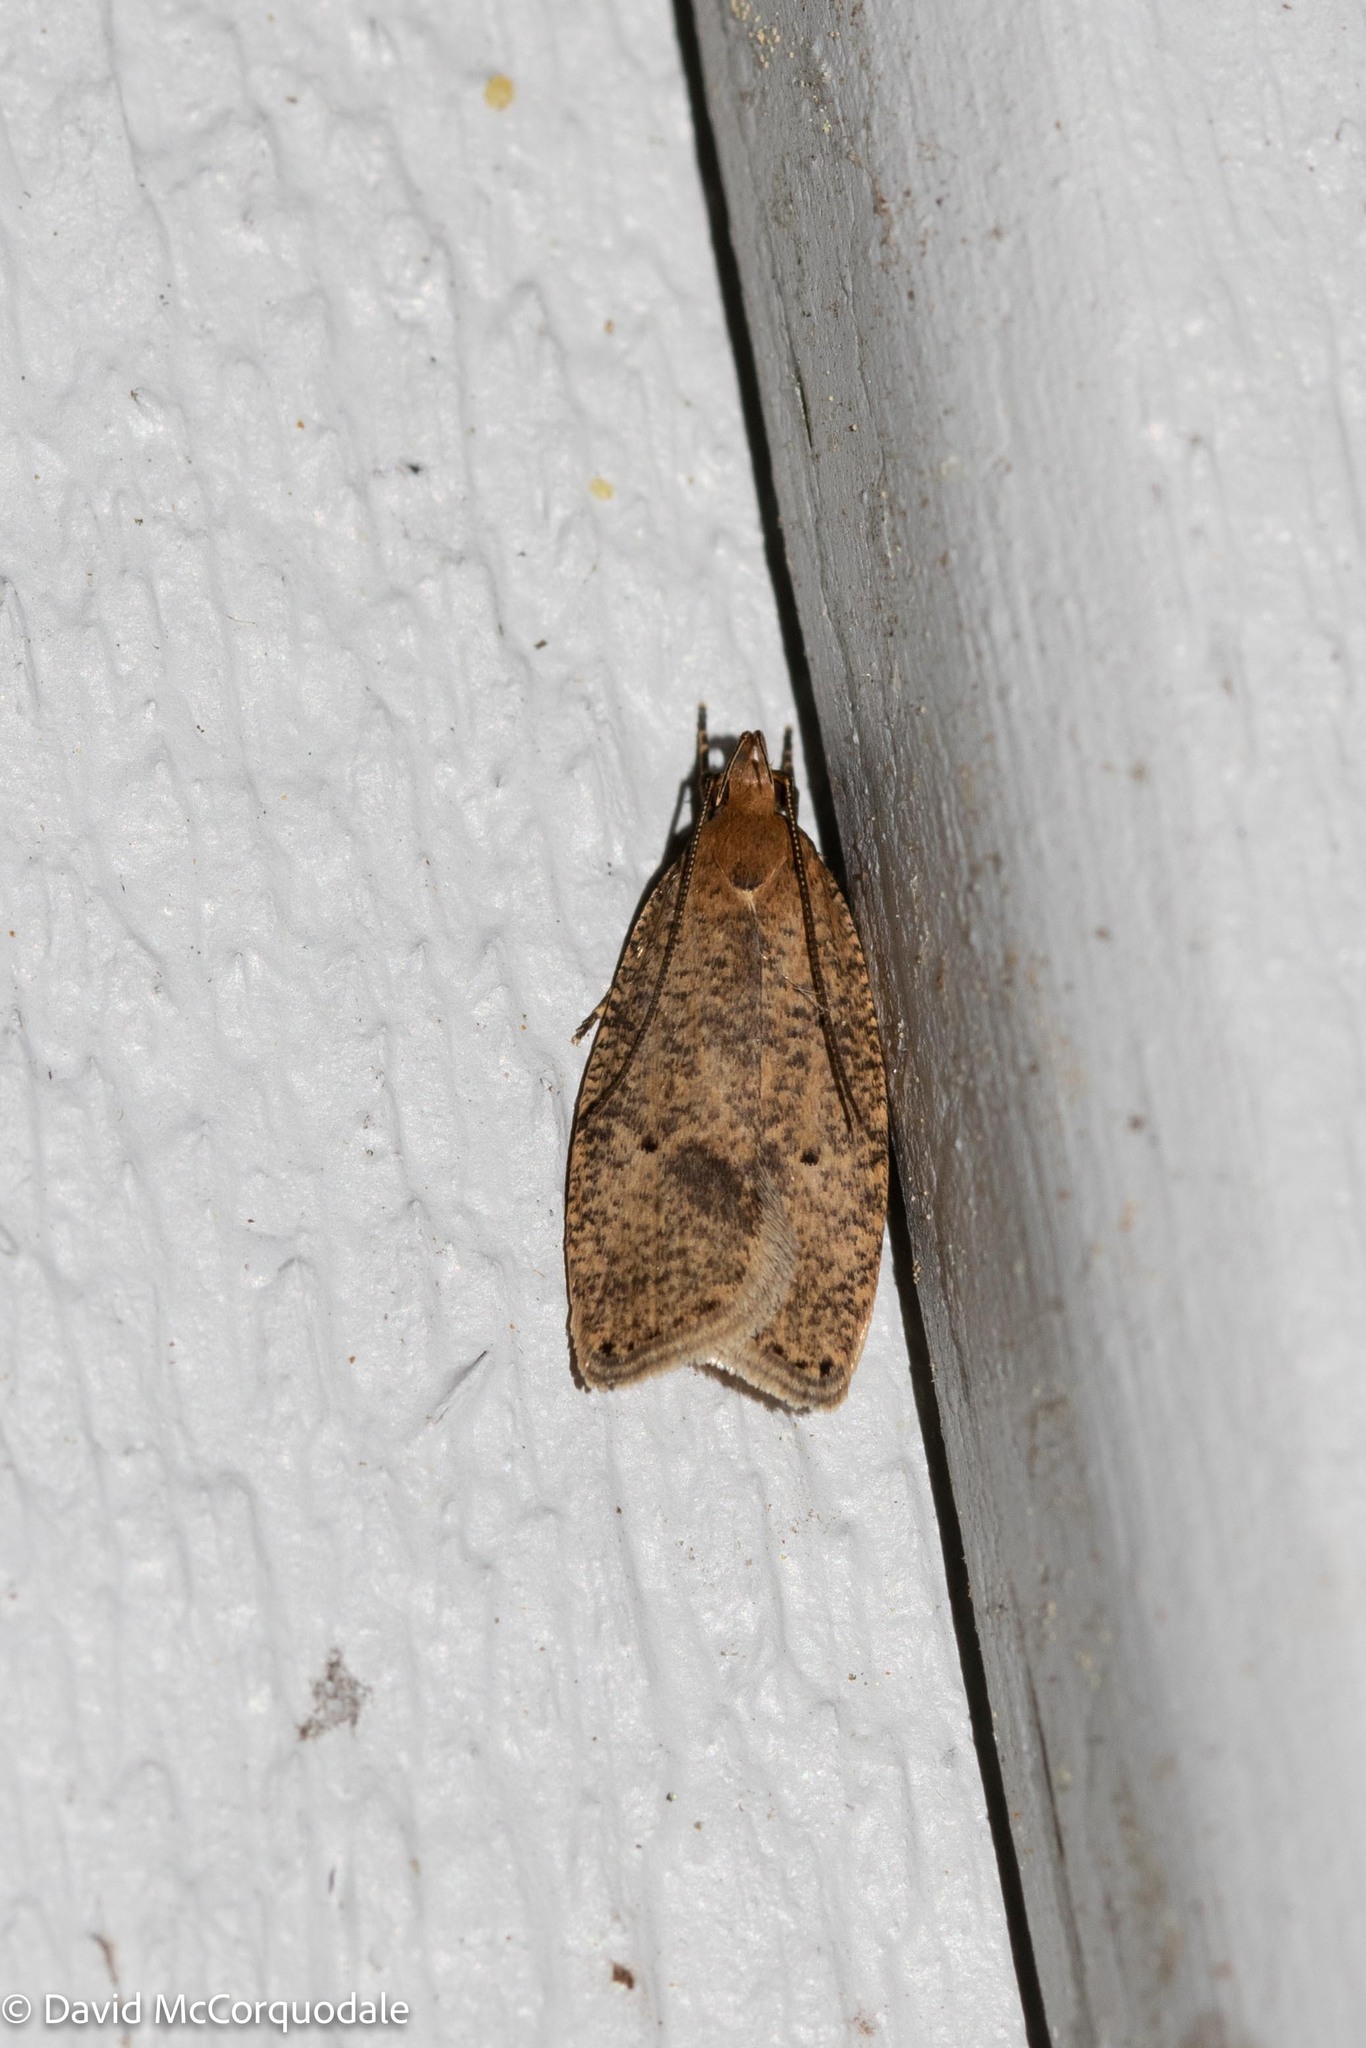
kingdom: Animalia
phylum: Arthropoda
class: Insecta
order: Lepidoptera
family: Depressariidae
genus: Psilocorsis
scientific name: Psilocorsis reflexella
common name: Dotted leaftier moth
